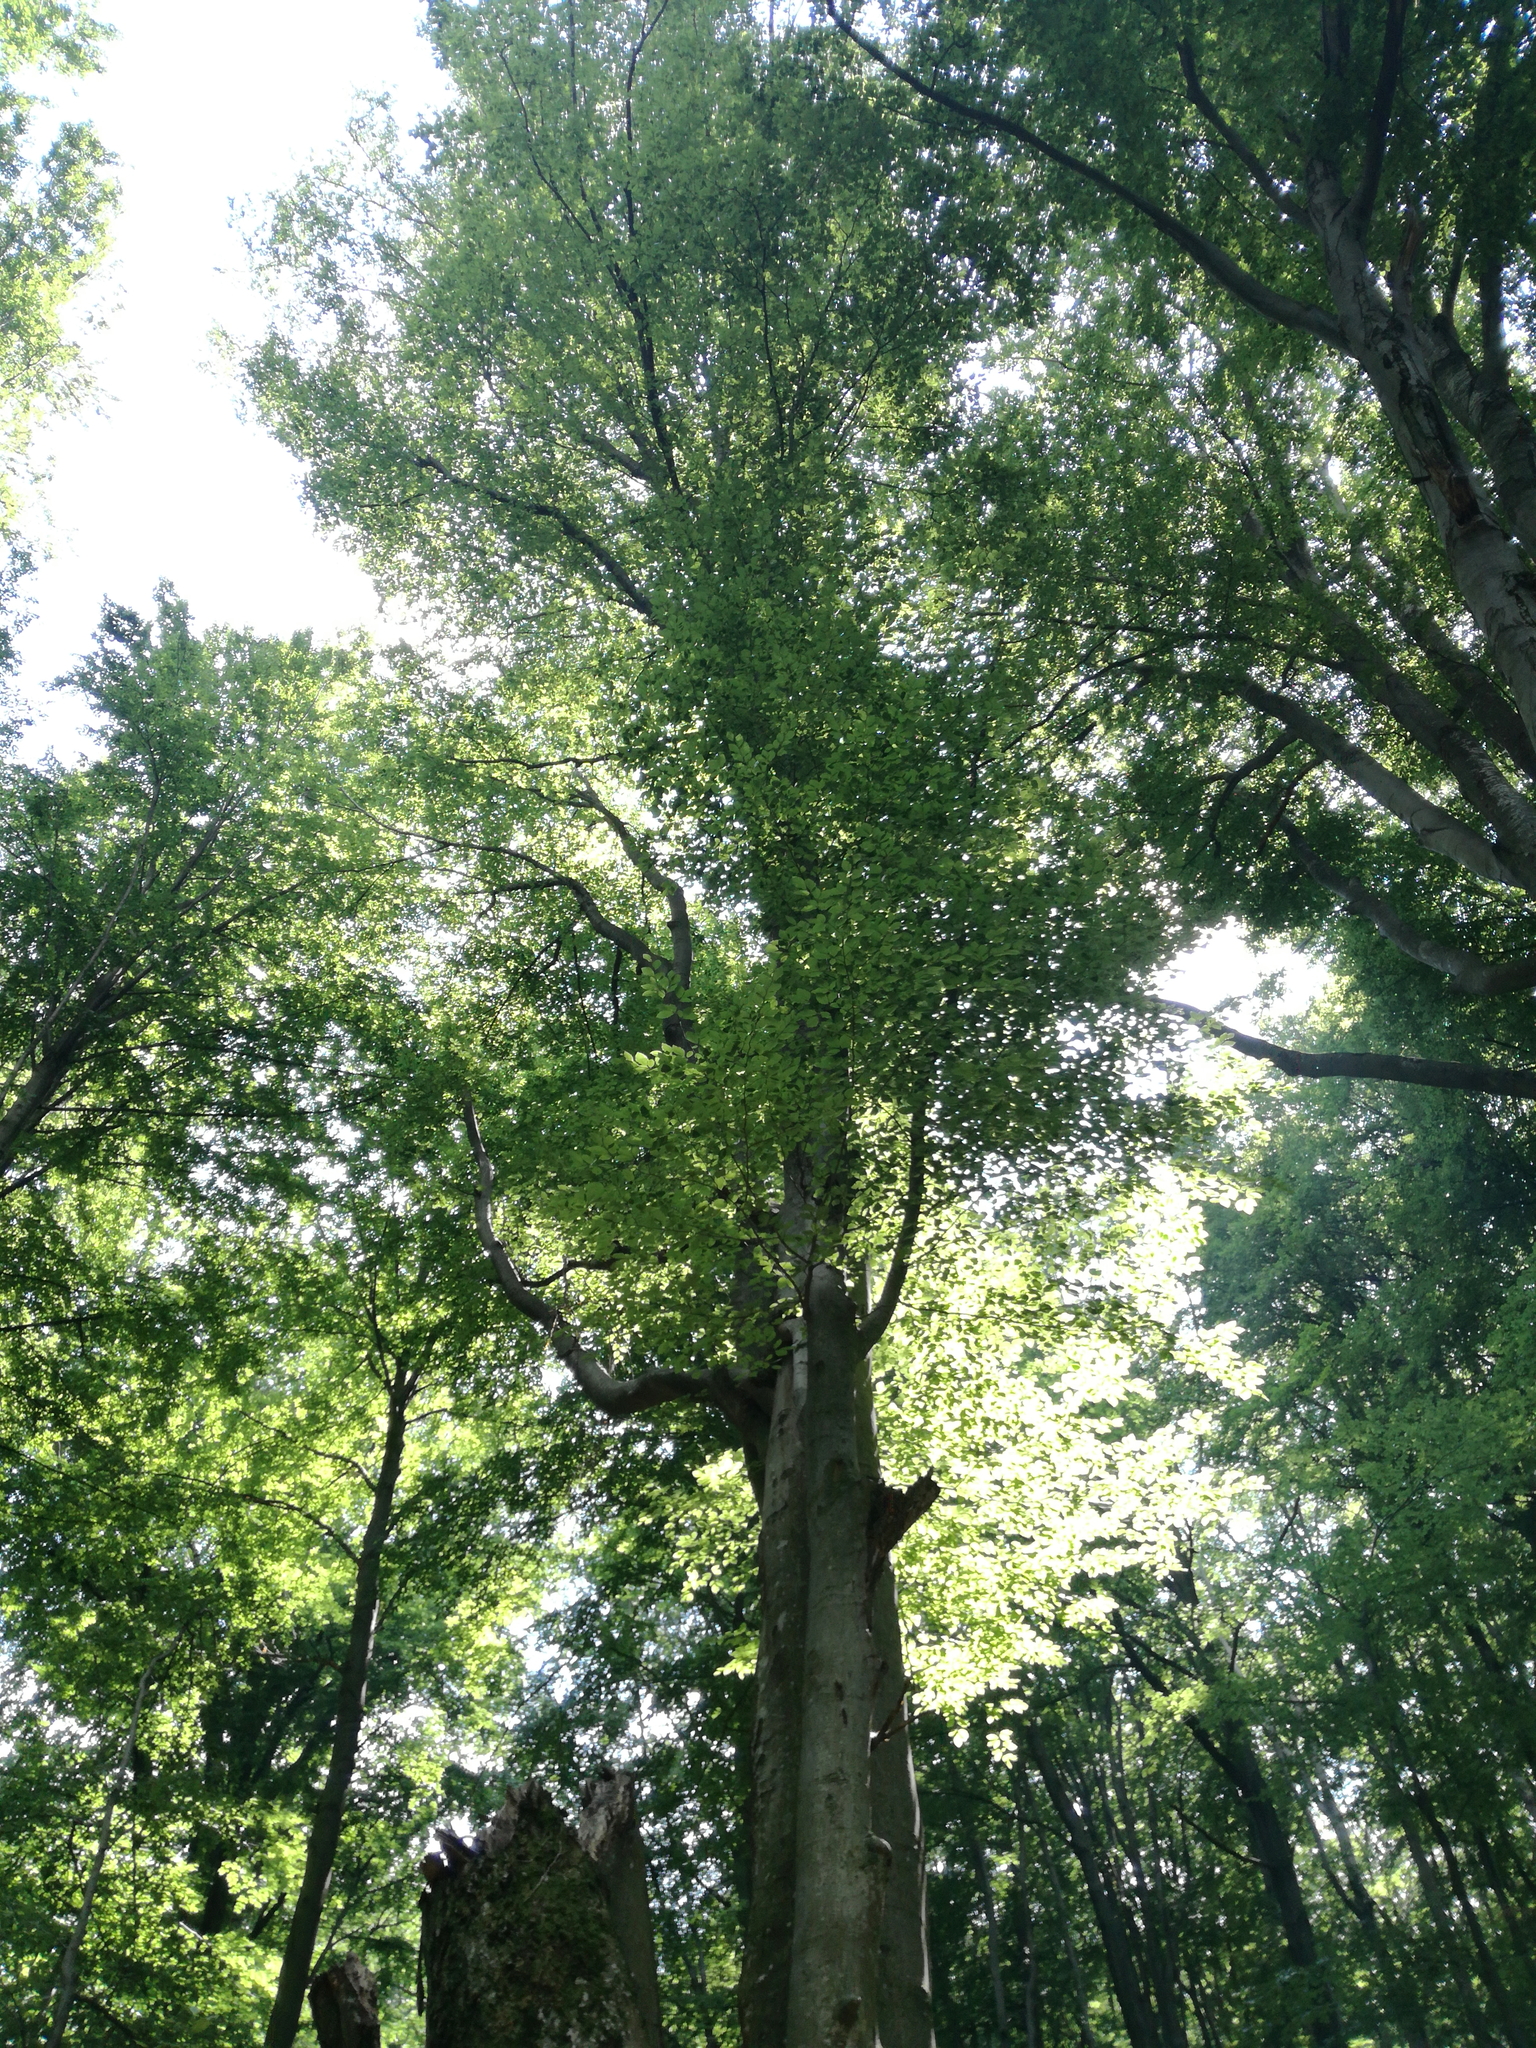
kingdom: Plantae
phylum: Tracheophyta
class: Magnoliopsida
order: Fagales
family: Fagaceae
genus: Fagus
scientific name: Fagus sylvatica
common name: Beech
